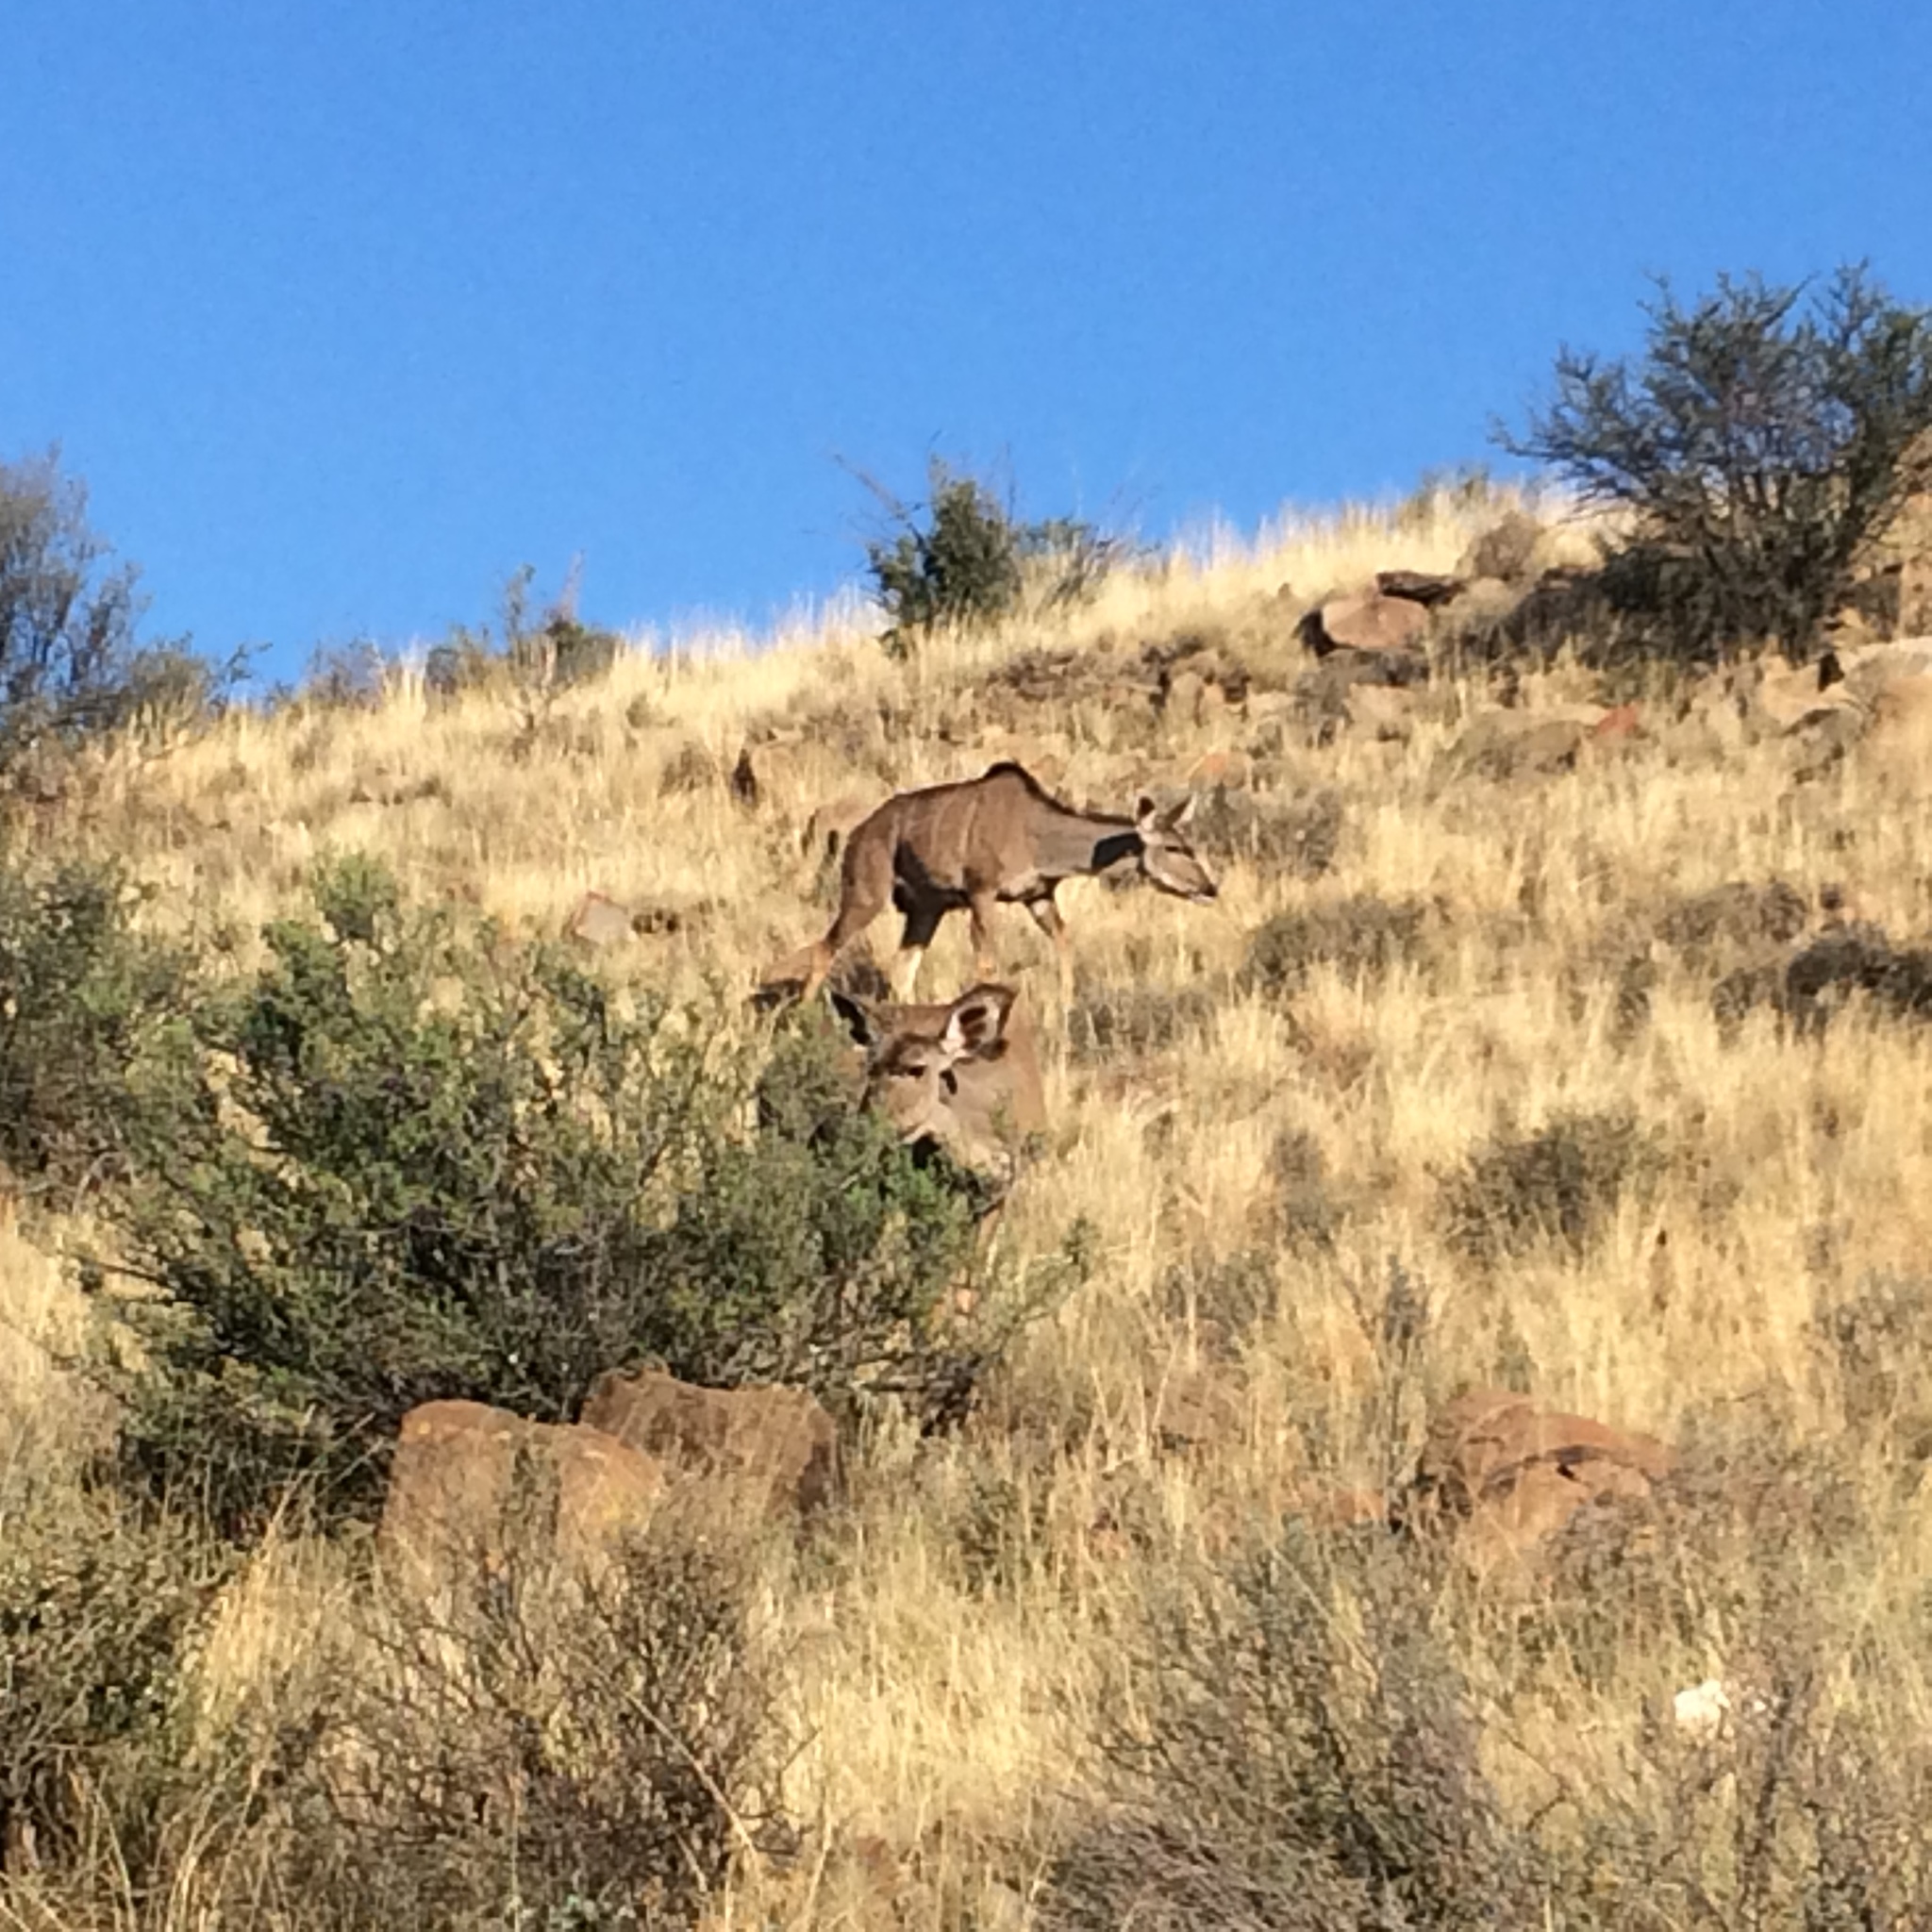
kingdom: Animalia
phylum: Chordata
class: Mammalia
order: Artiodactyla
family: Bovidae
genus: Tragelaphus
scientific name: Tragelaphus strepsiceros
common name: Greater kudu
